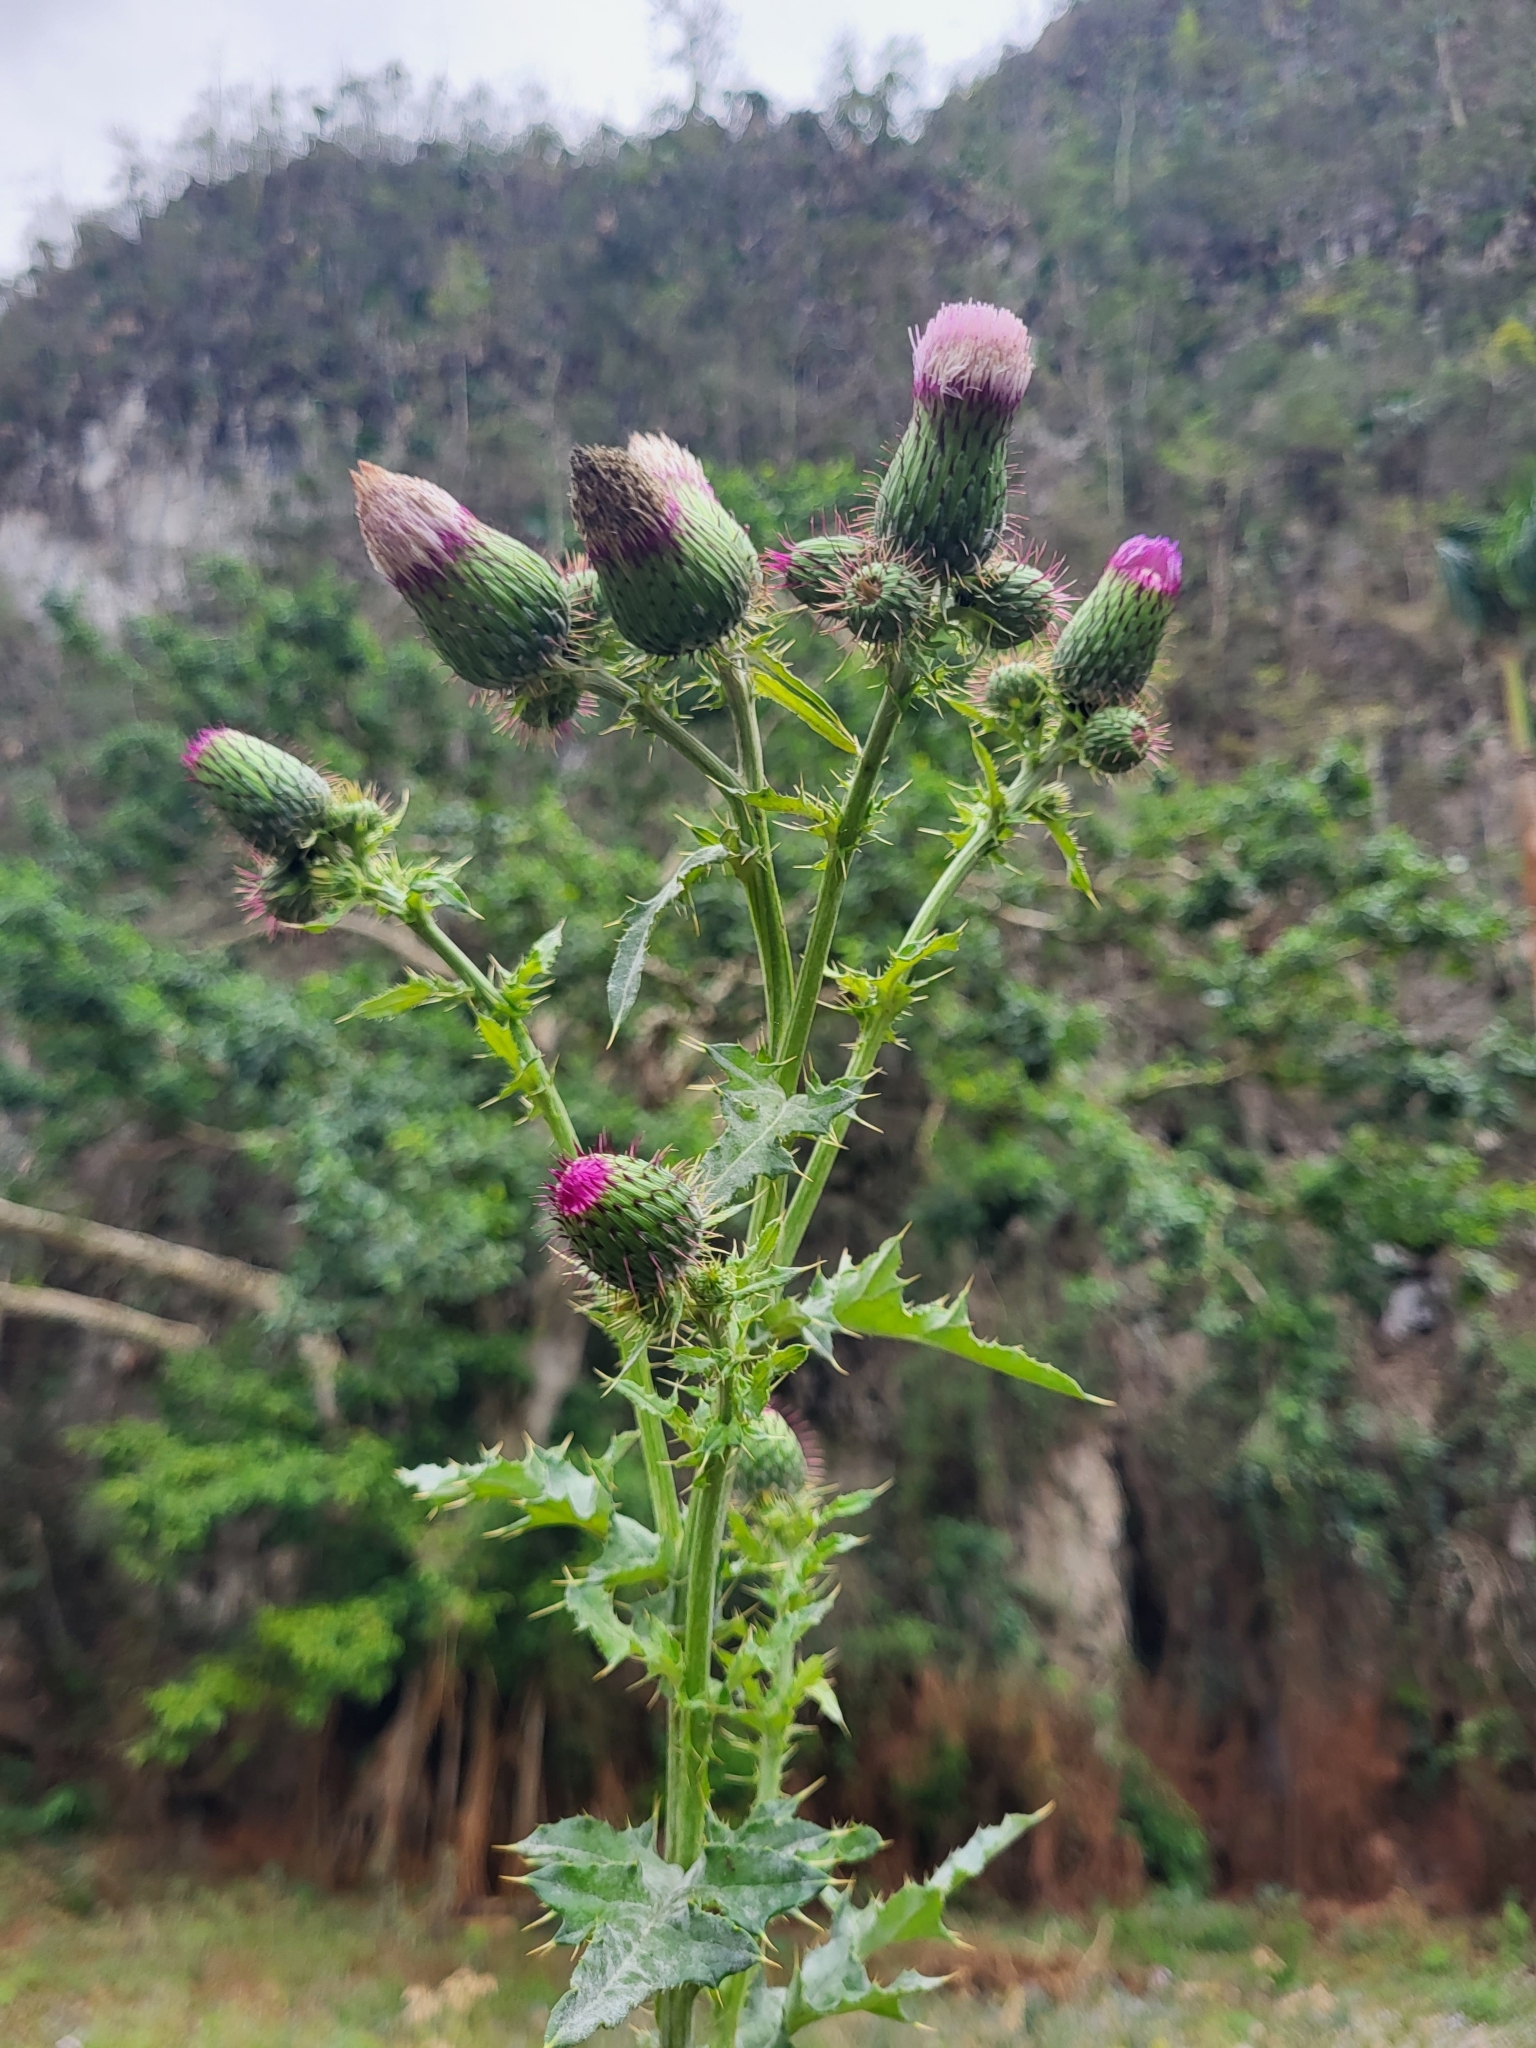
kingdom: Plantae
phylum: Tracheophyta
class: Magnoliopsida
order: Asterales
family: Asteraceae
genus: Cirsium
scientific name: Cirsium mexicanum
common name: Mexican thistle
